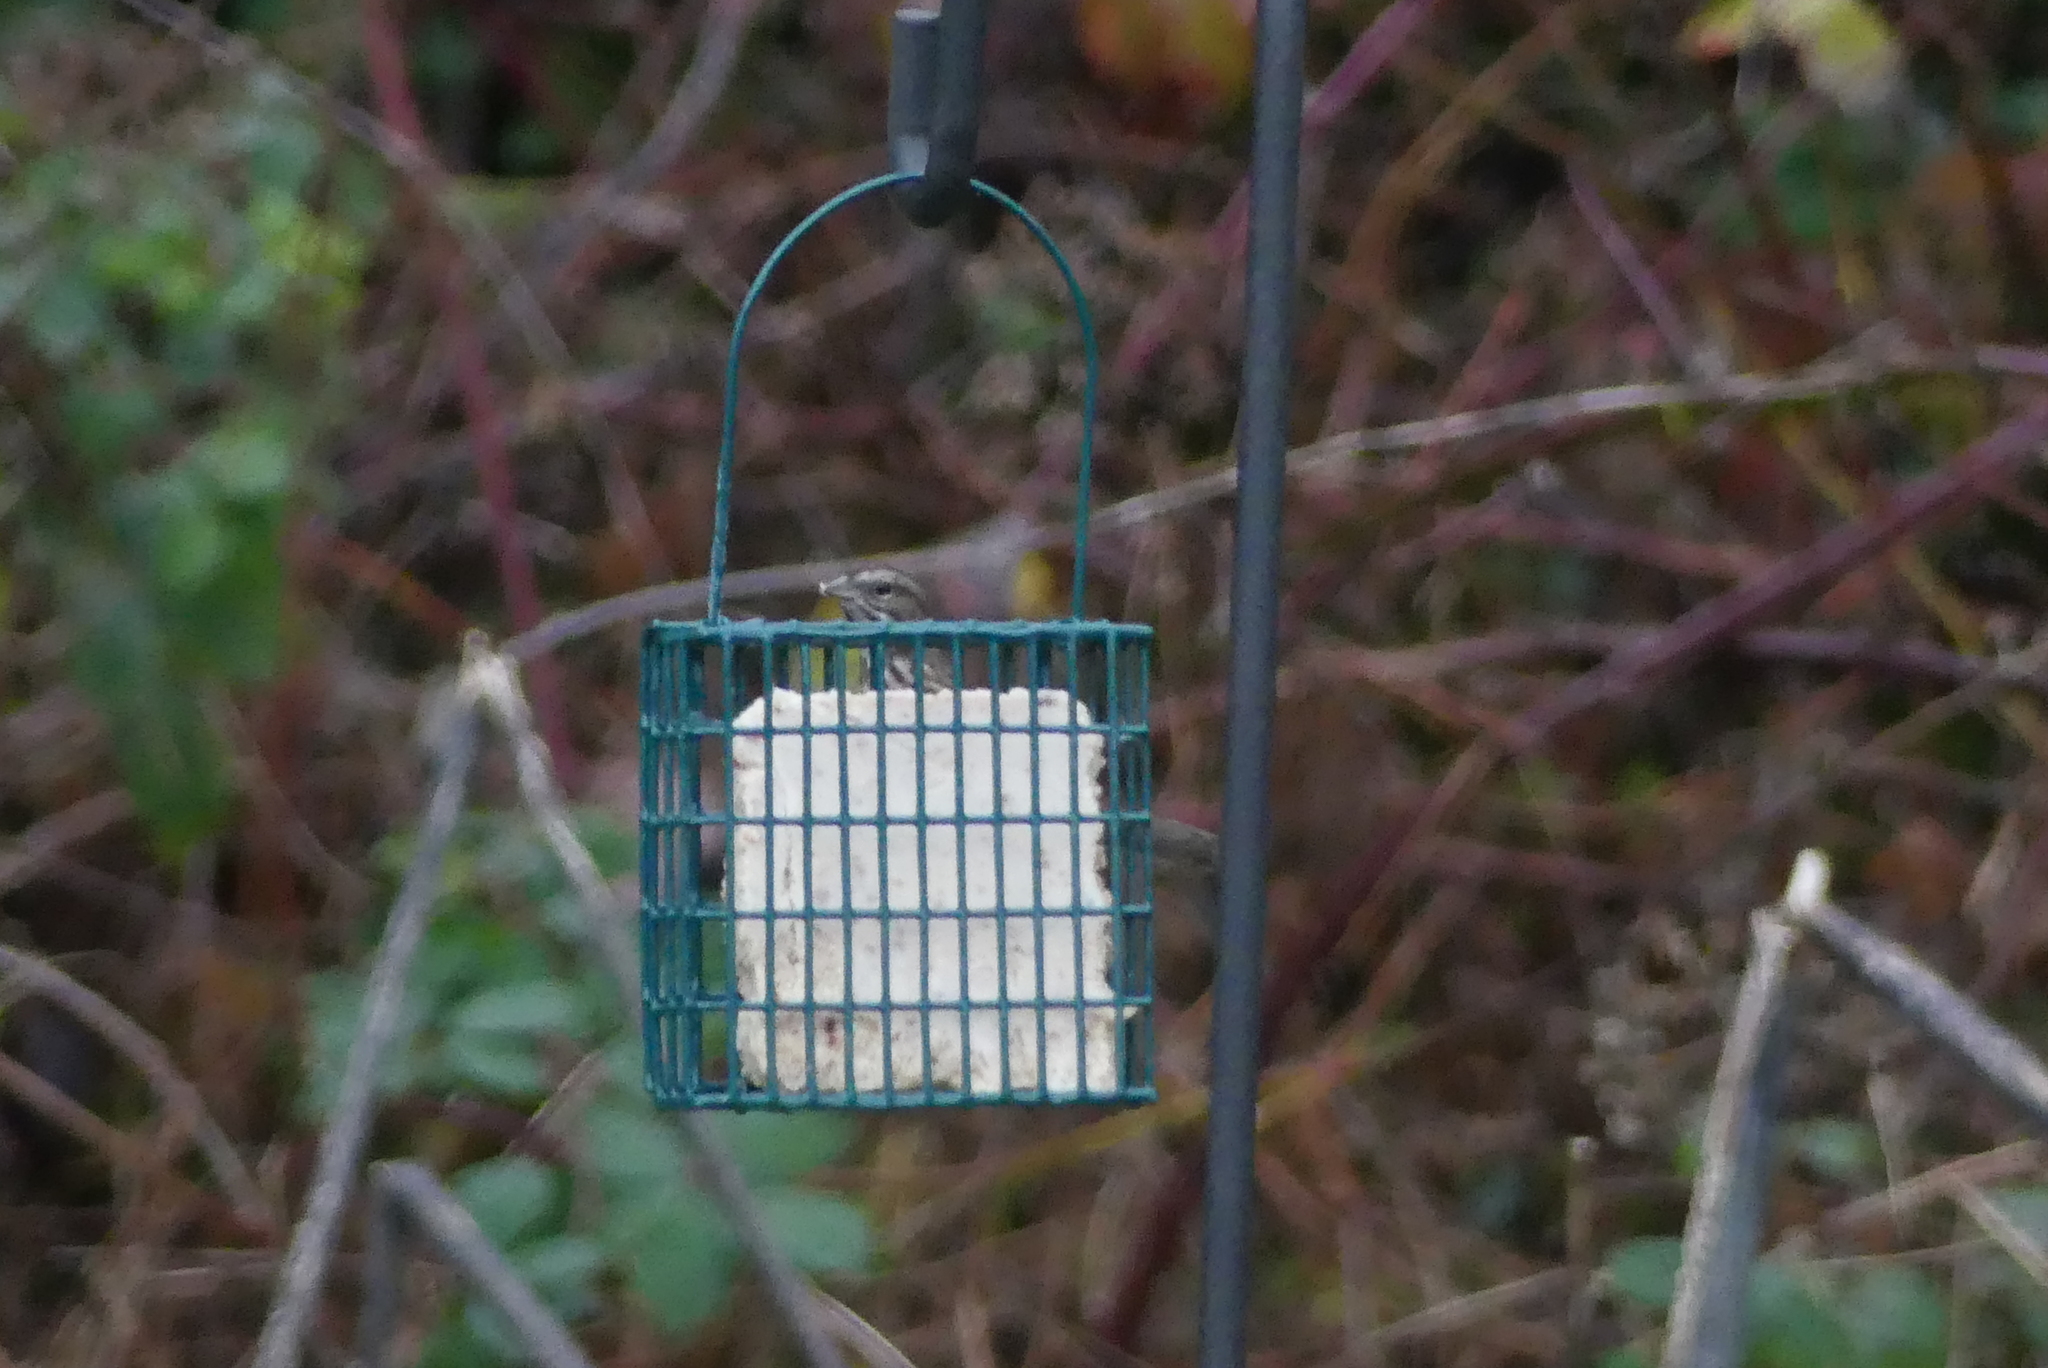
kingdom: Animalia
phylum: Chordata
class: Aves
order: Passeriformes
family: Passerellidae
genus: Melospiza
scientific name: Melospiza melodia
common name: Song sparrow
